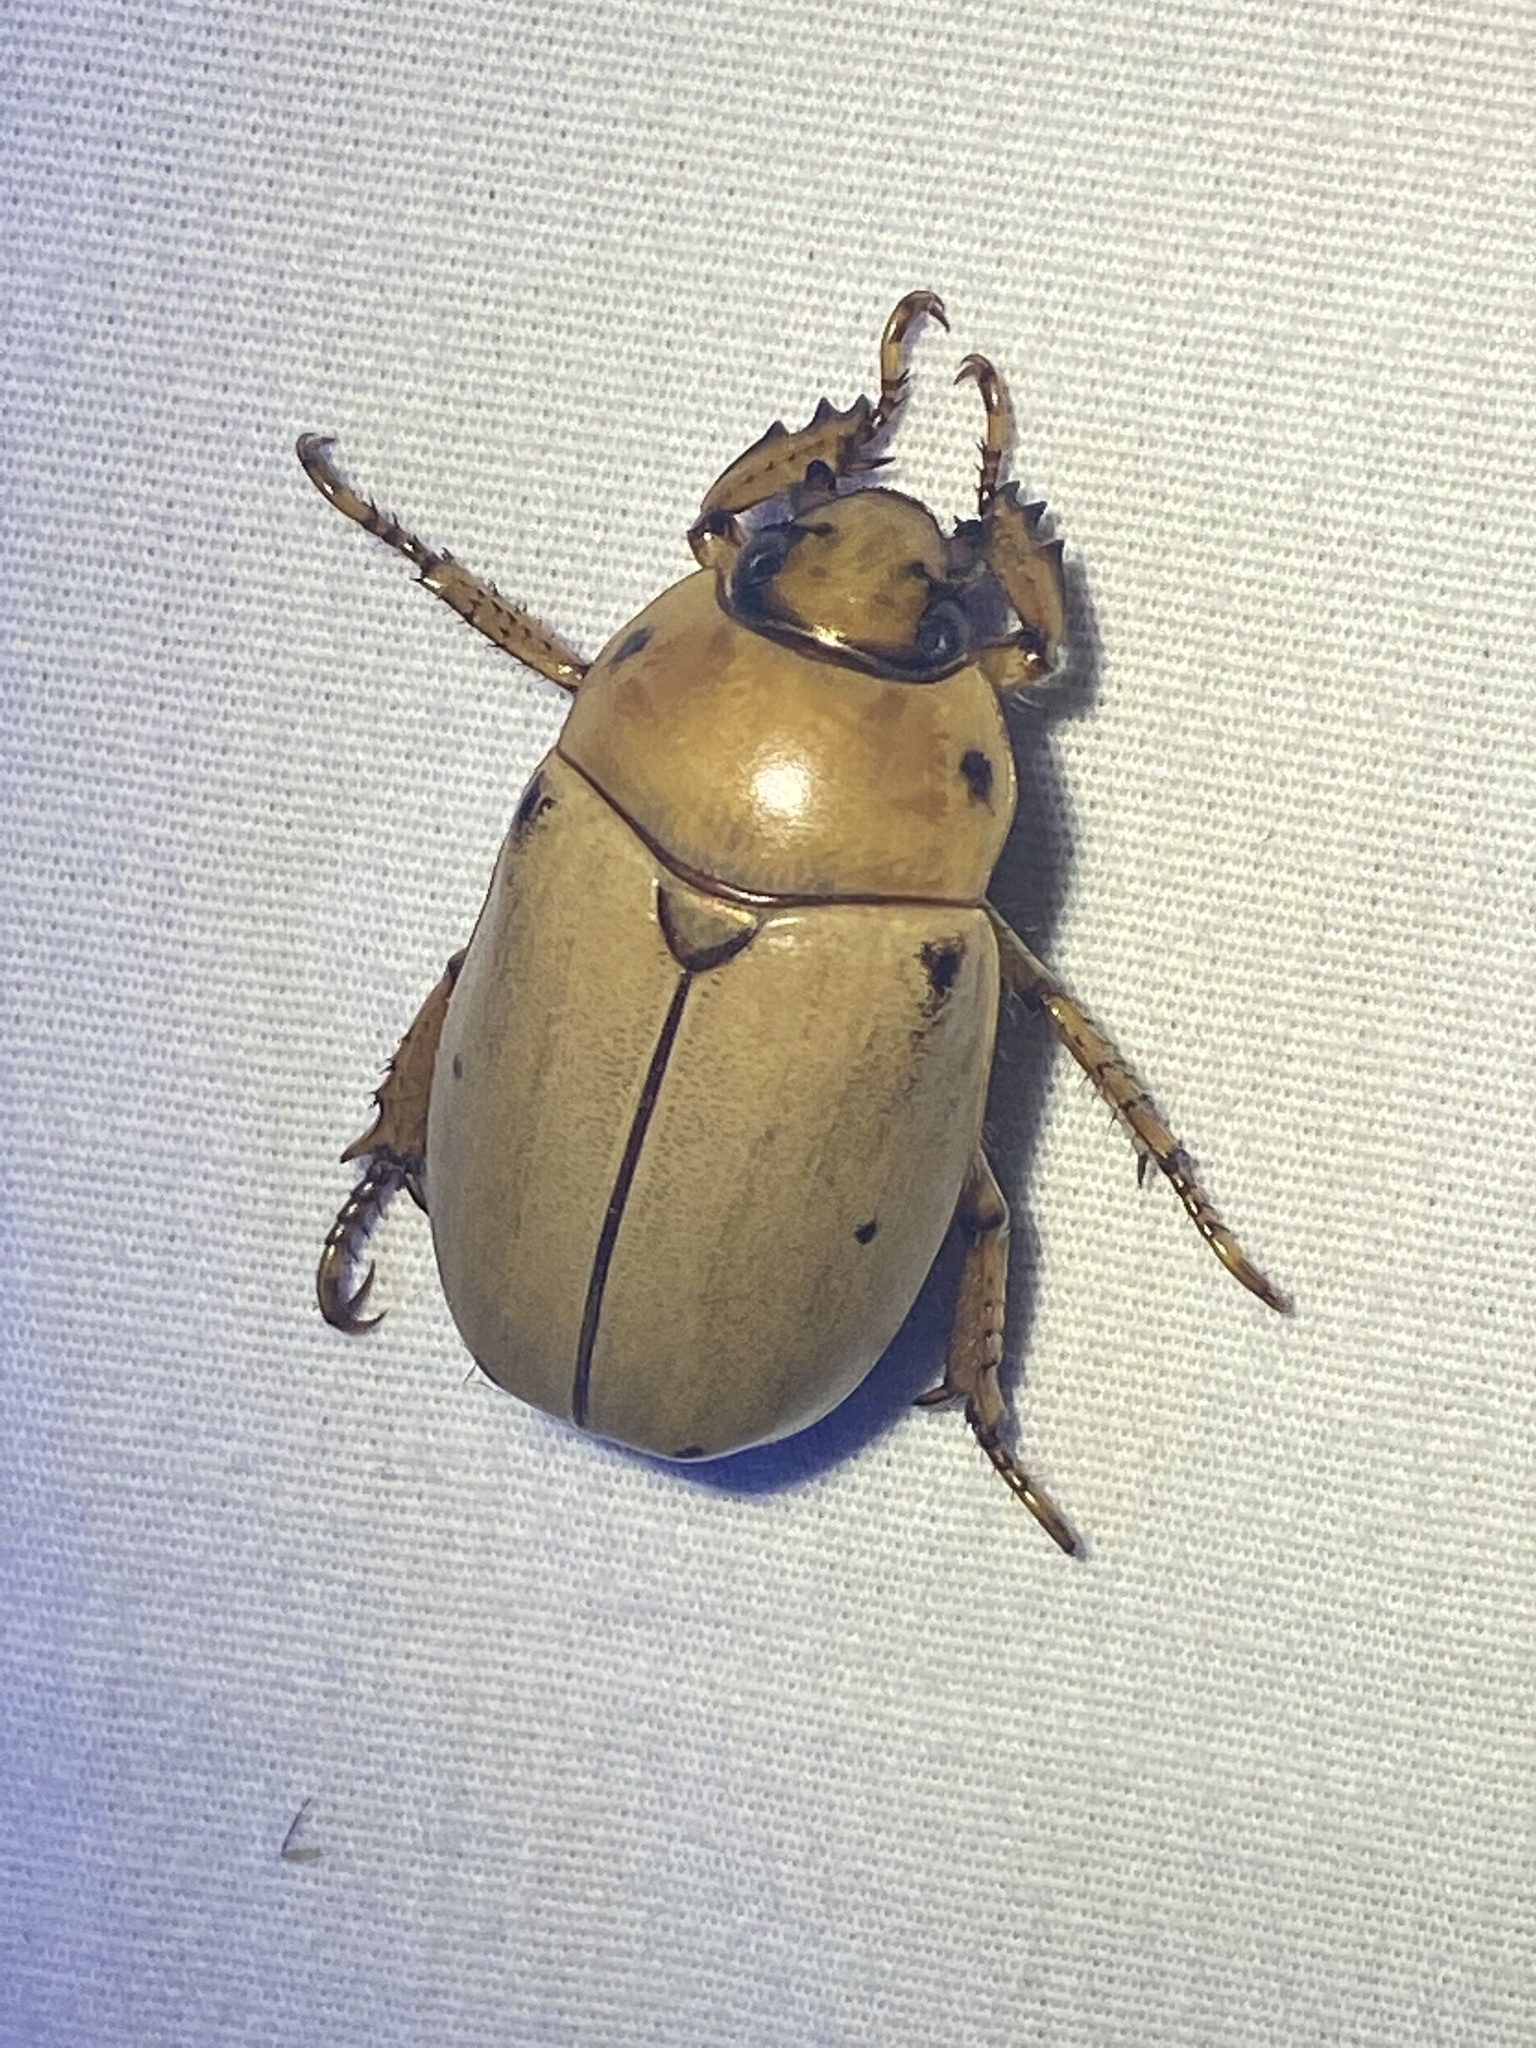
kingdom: Animalia
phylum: Arthropoda
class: Insecta
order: Coleoptera
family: Scarabaeidae
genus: Pelidnota
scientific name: Pelidnota punctata
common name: Grapevine beetle
